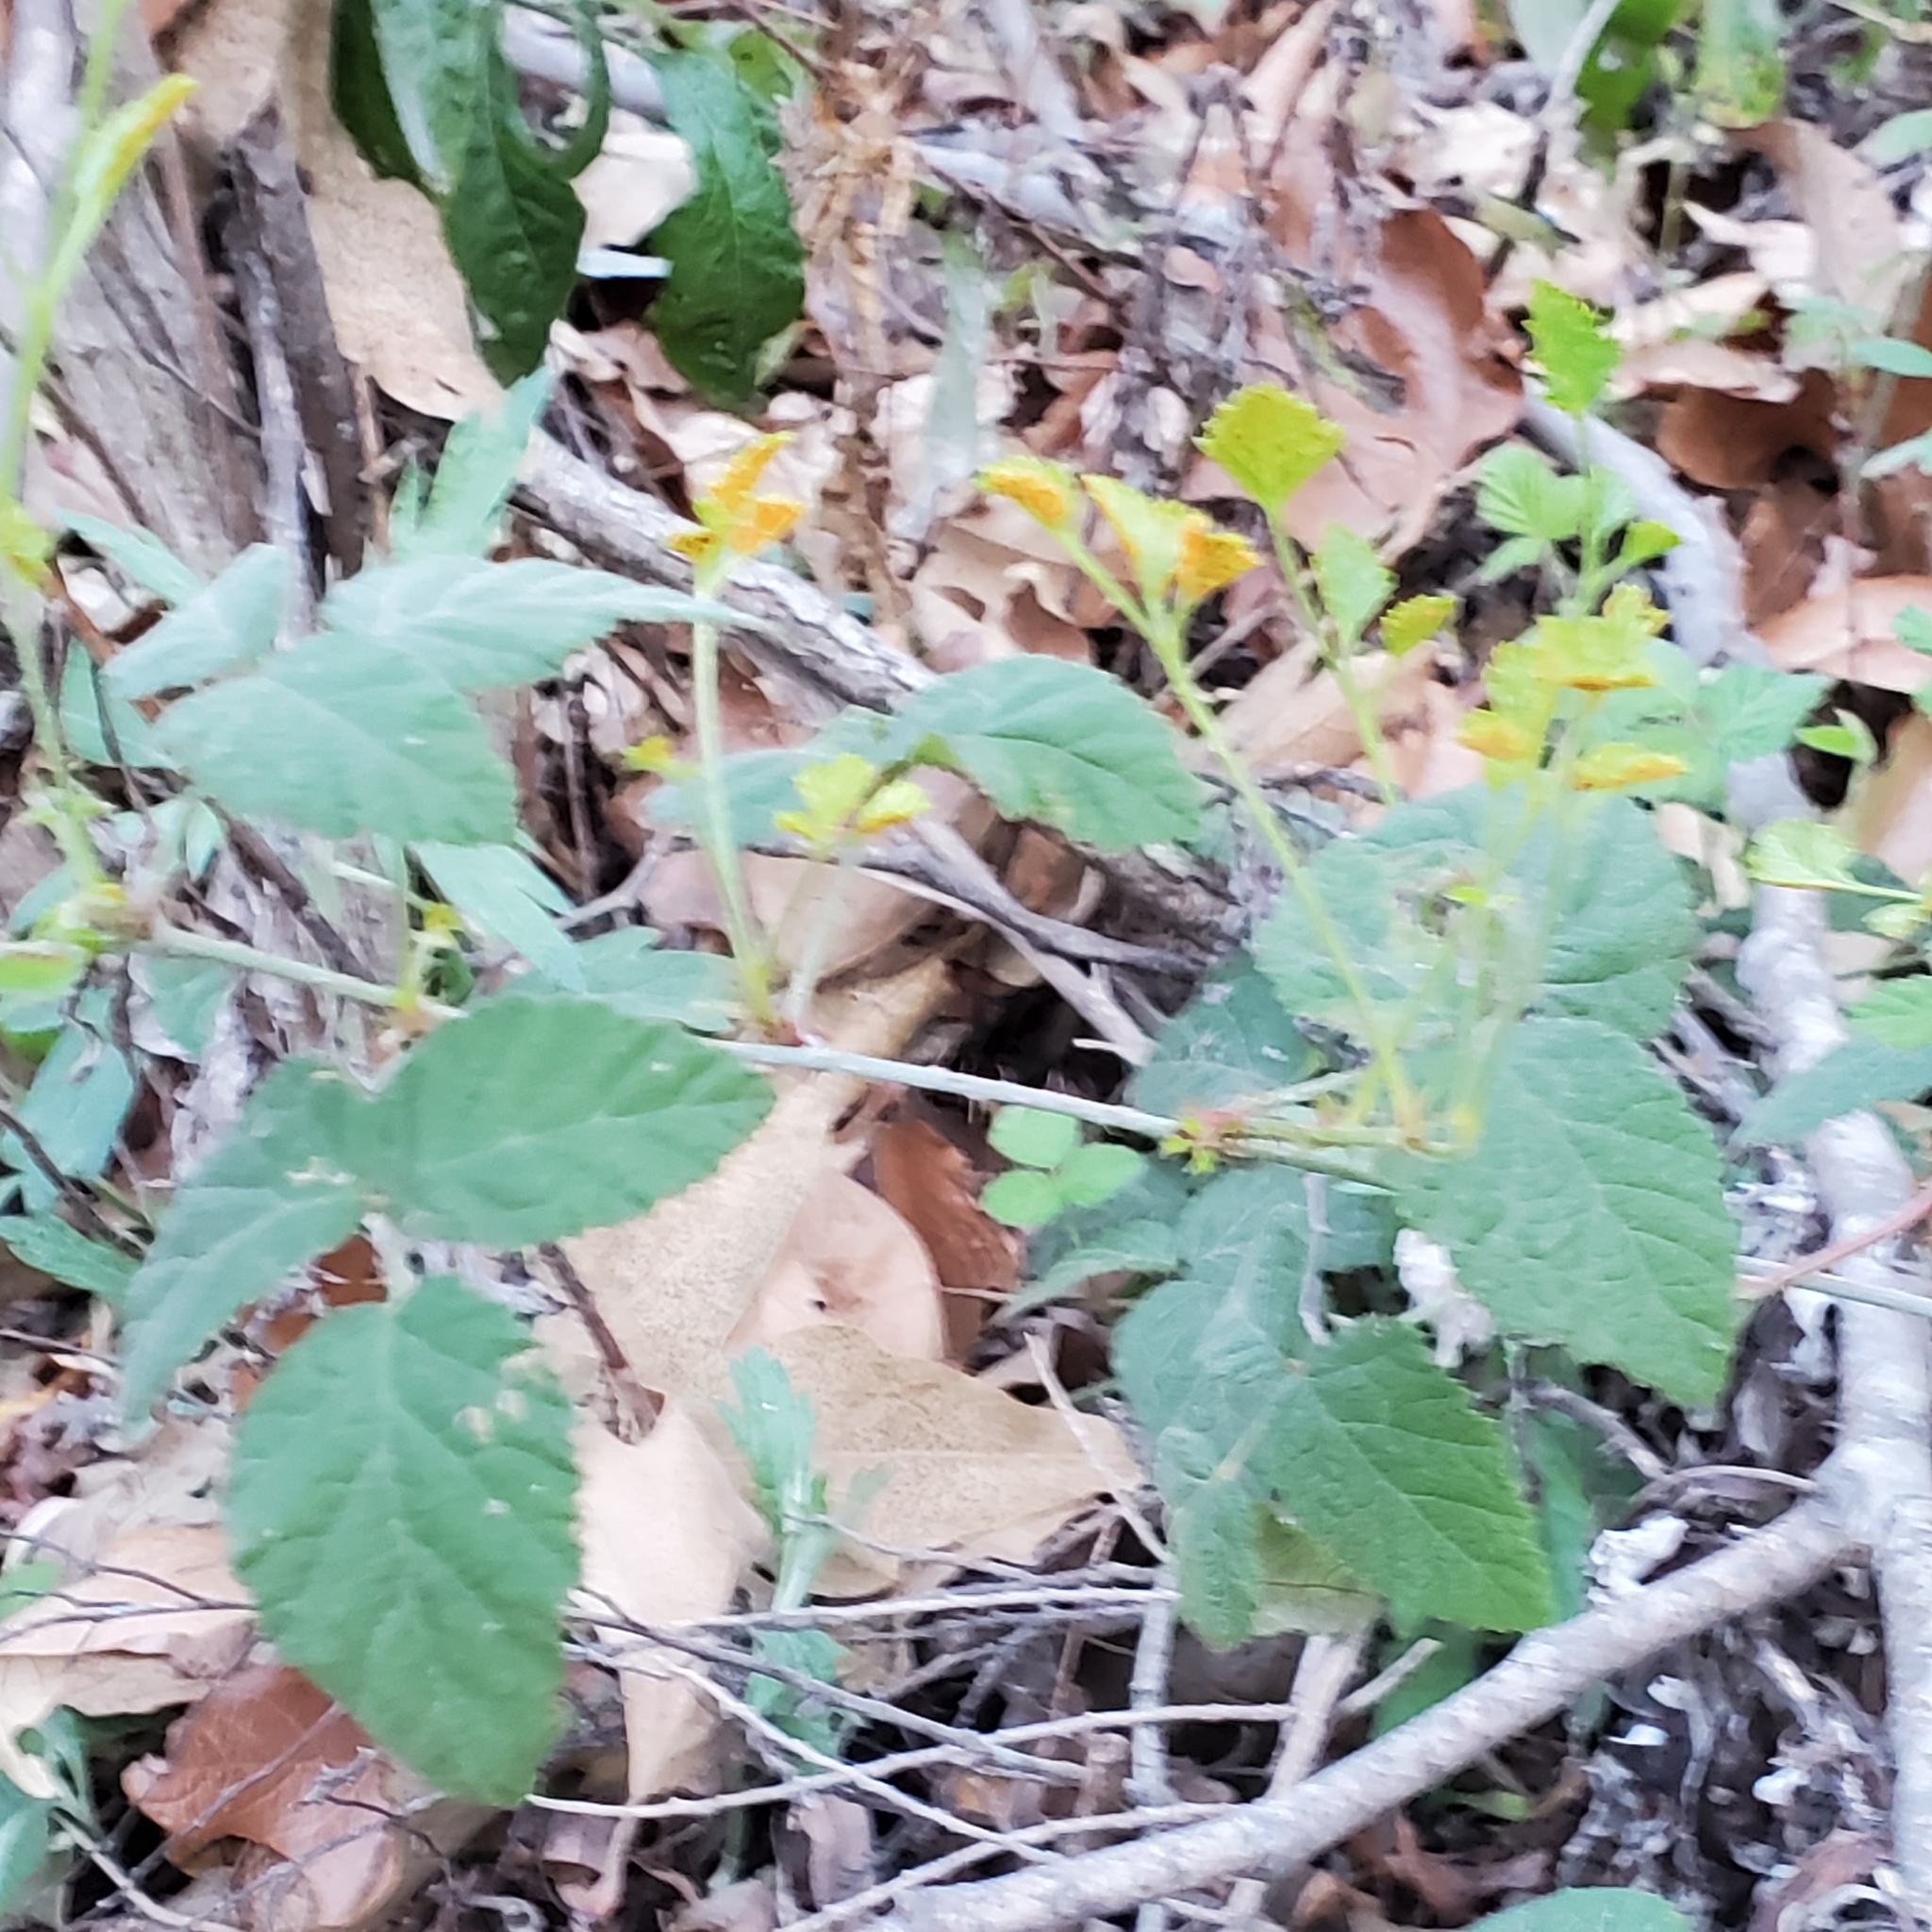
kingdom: Plantae
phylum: Tracheophyta
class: Magnoliopsida
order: Rosales
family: Rosaceae
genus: Rubus
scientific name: Rubus ursinus
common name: Pacific blackberry
